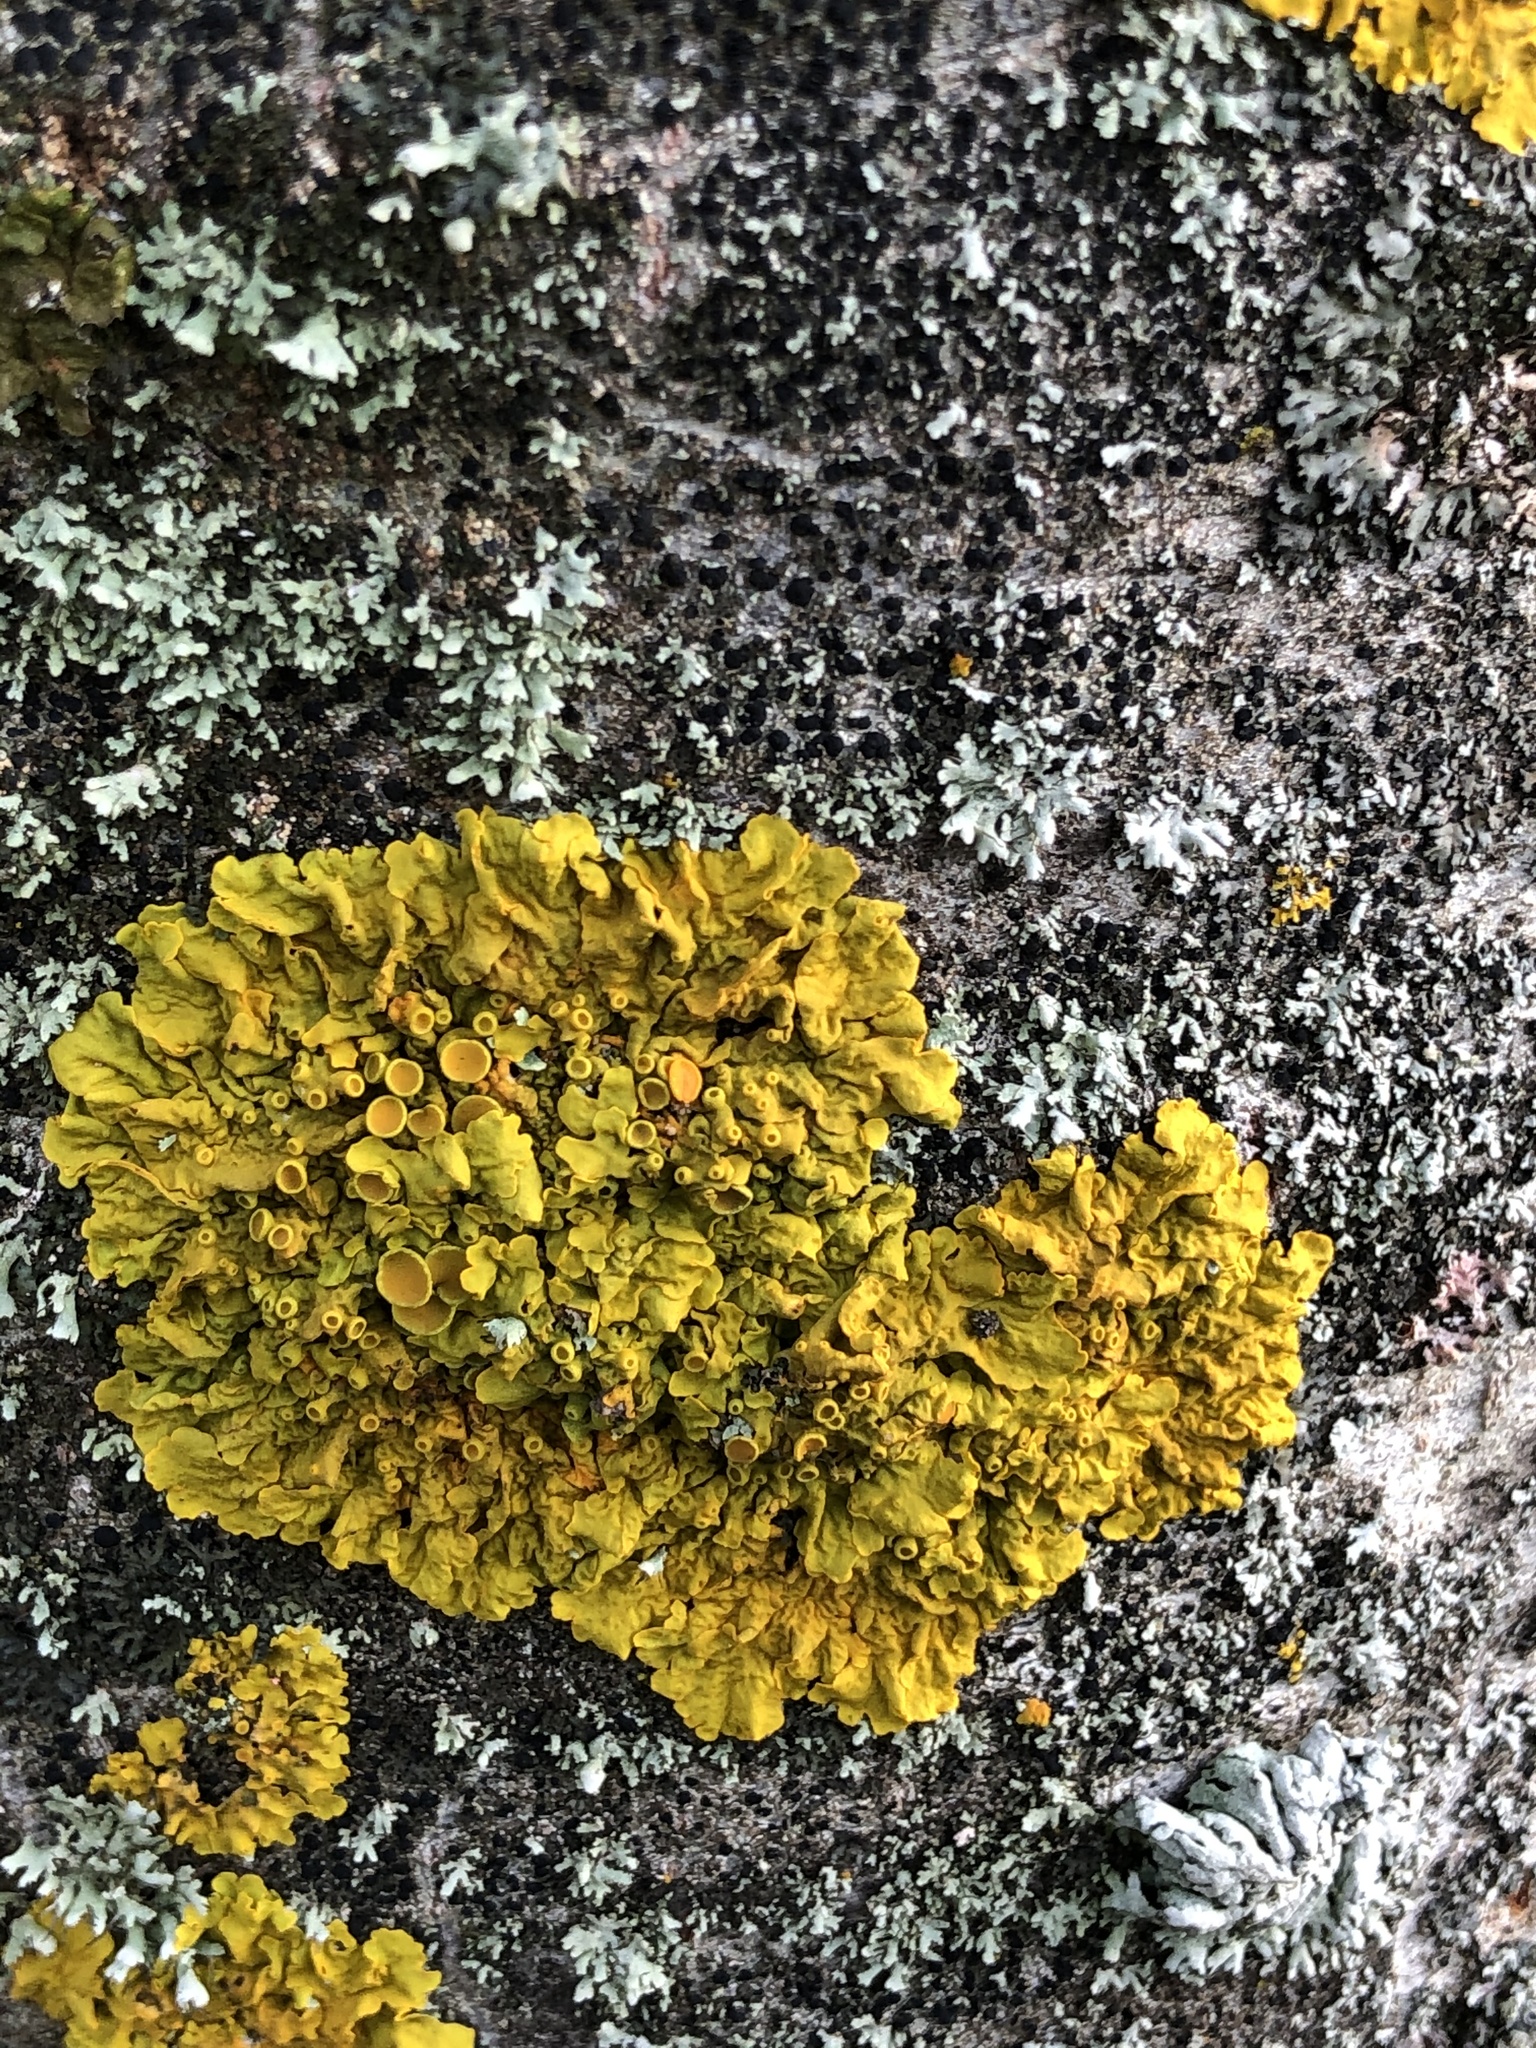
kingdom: Fungi
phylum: Ascomycota
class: Lecanoromycetes
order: Teloschistales
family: Teloschistaceae
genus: Xanthoria
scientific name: Xanthoria parietina
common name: Common orange lichen
